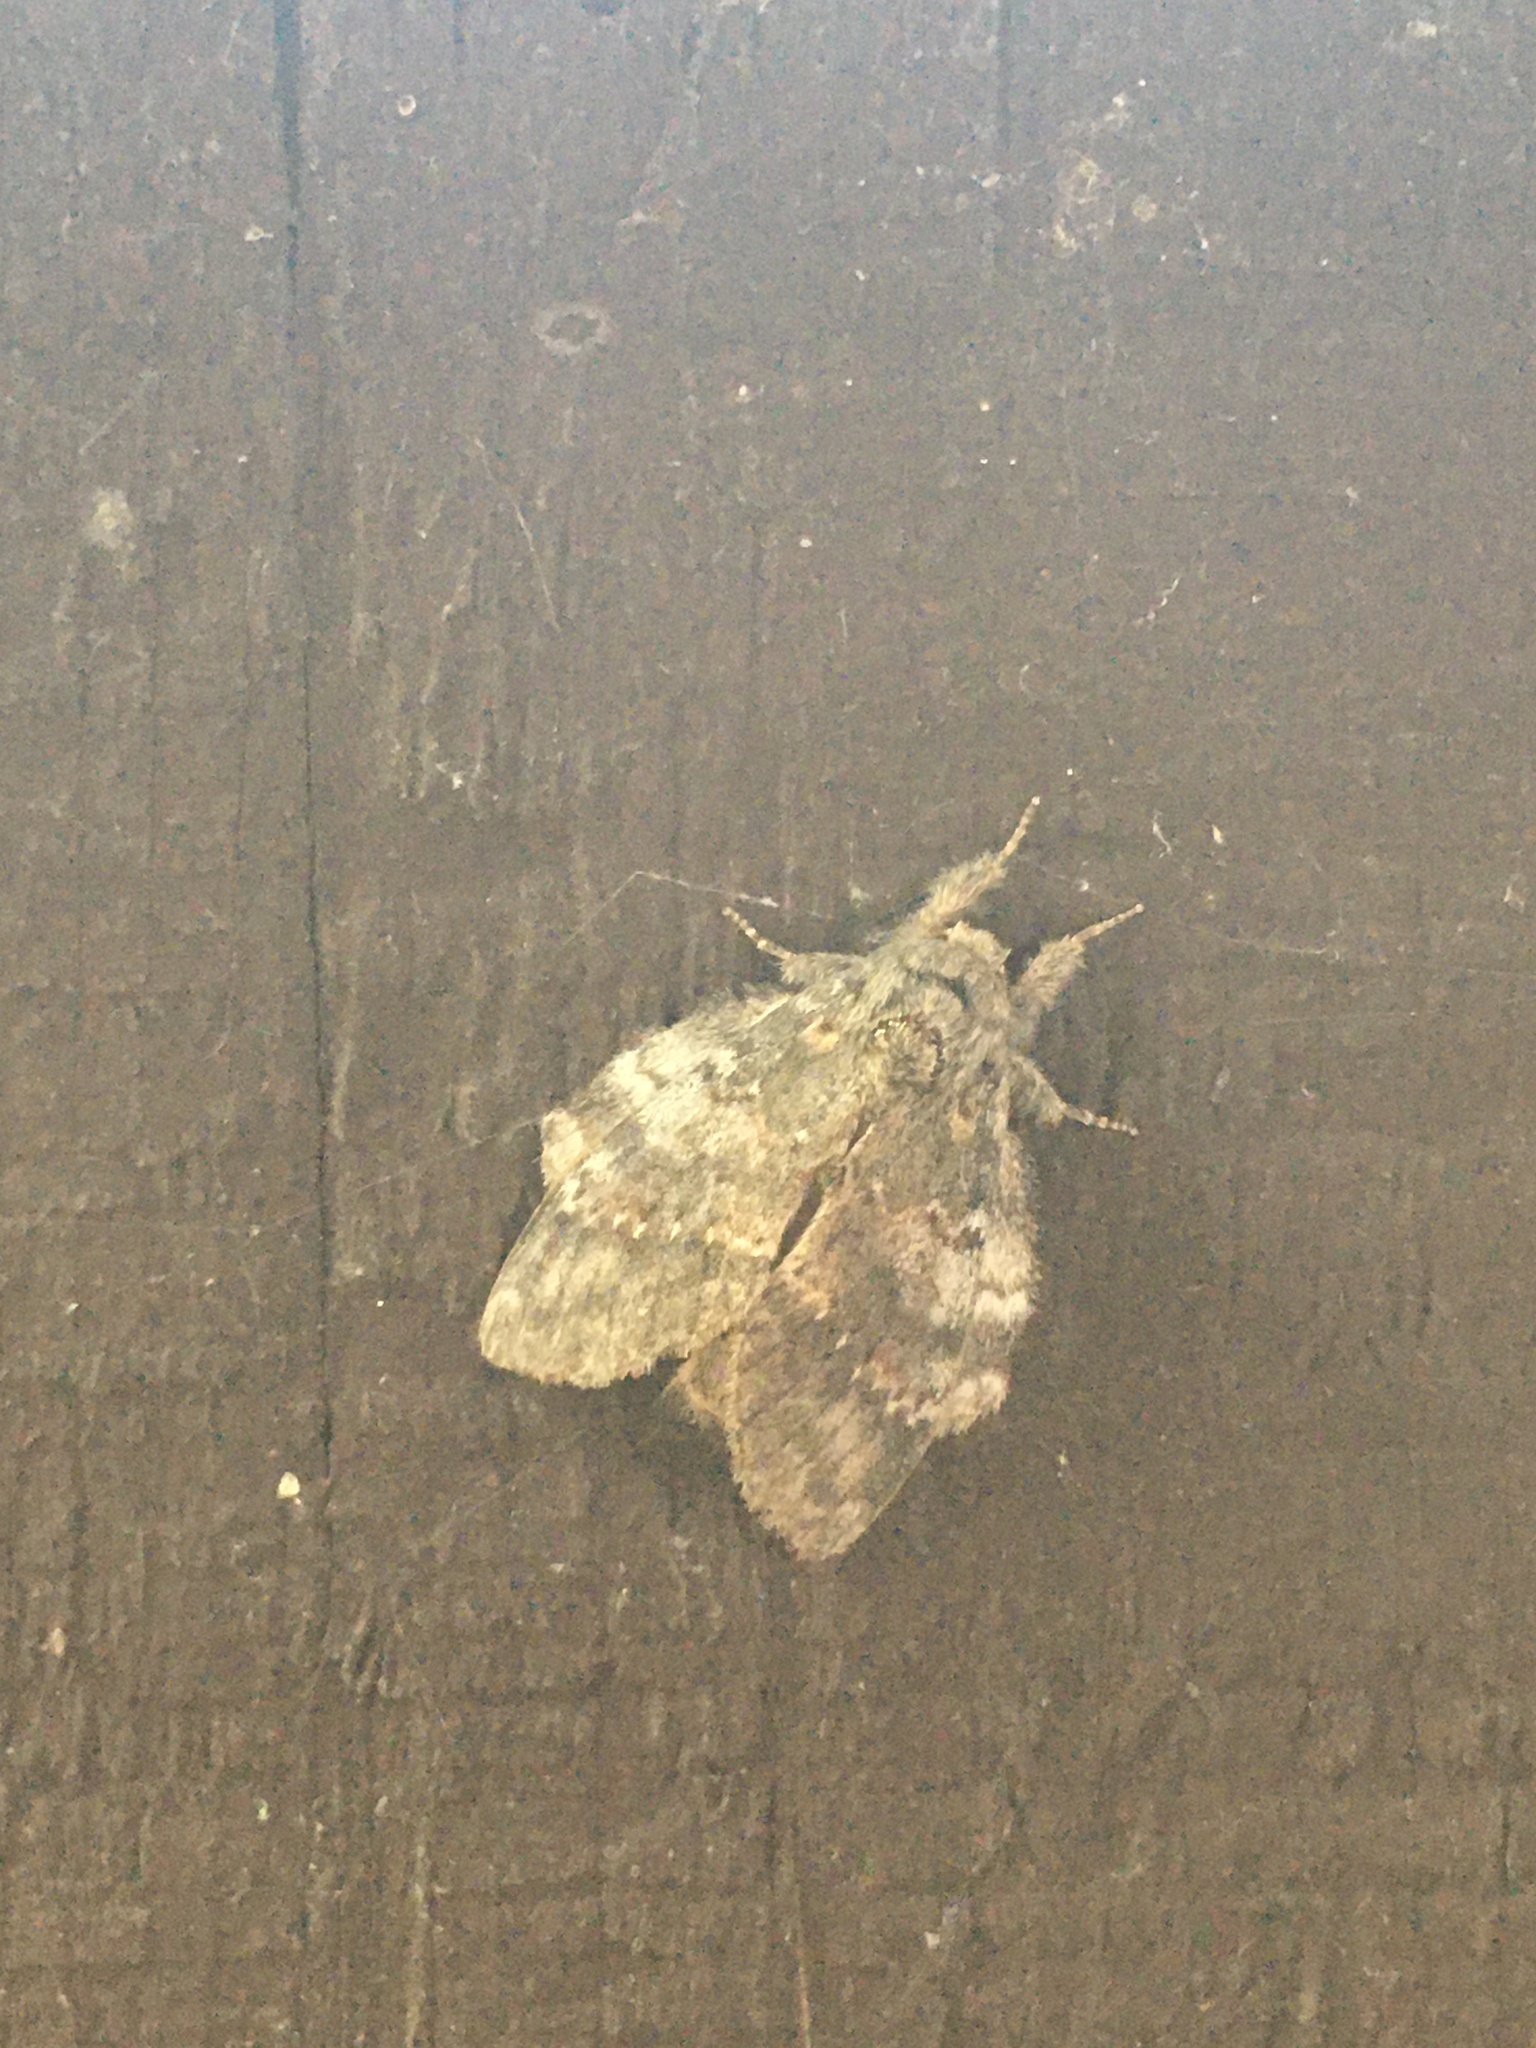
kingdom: Animalia
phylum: Arthropoda
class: Insecta
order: Lepidoptera
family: Notodontidae
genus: Peridea
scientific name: Peridea angulosa
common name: Angulose prominent
